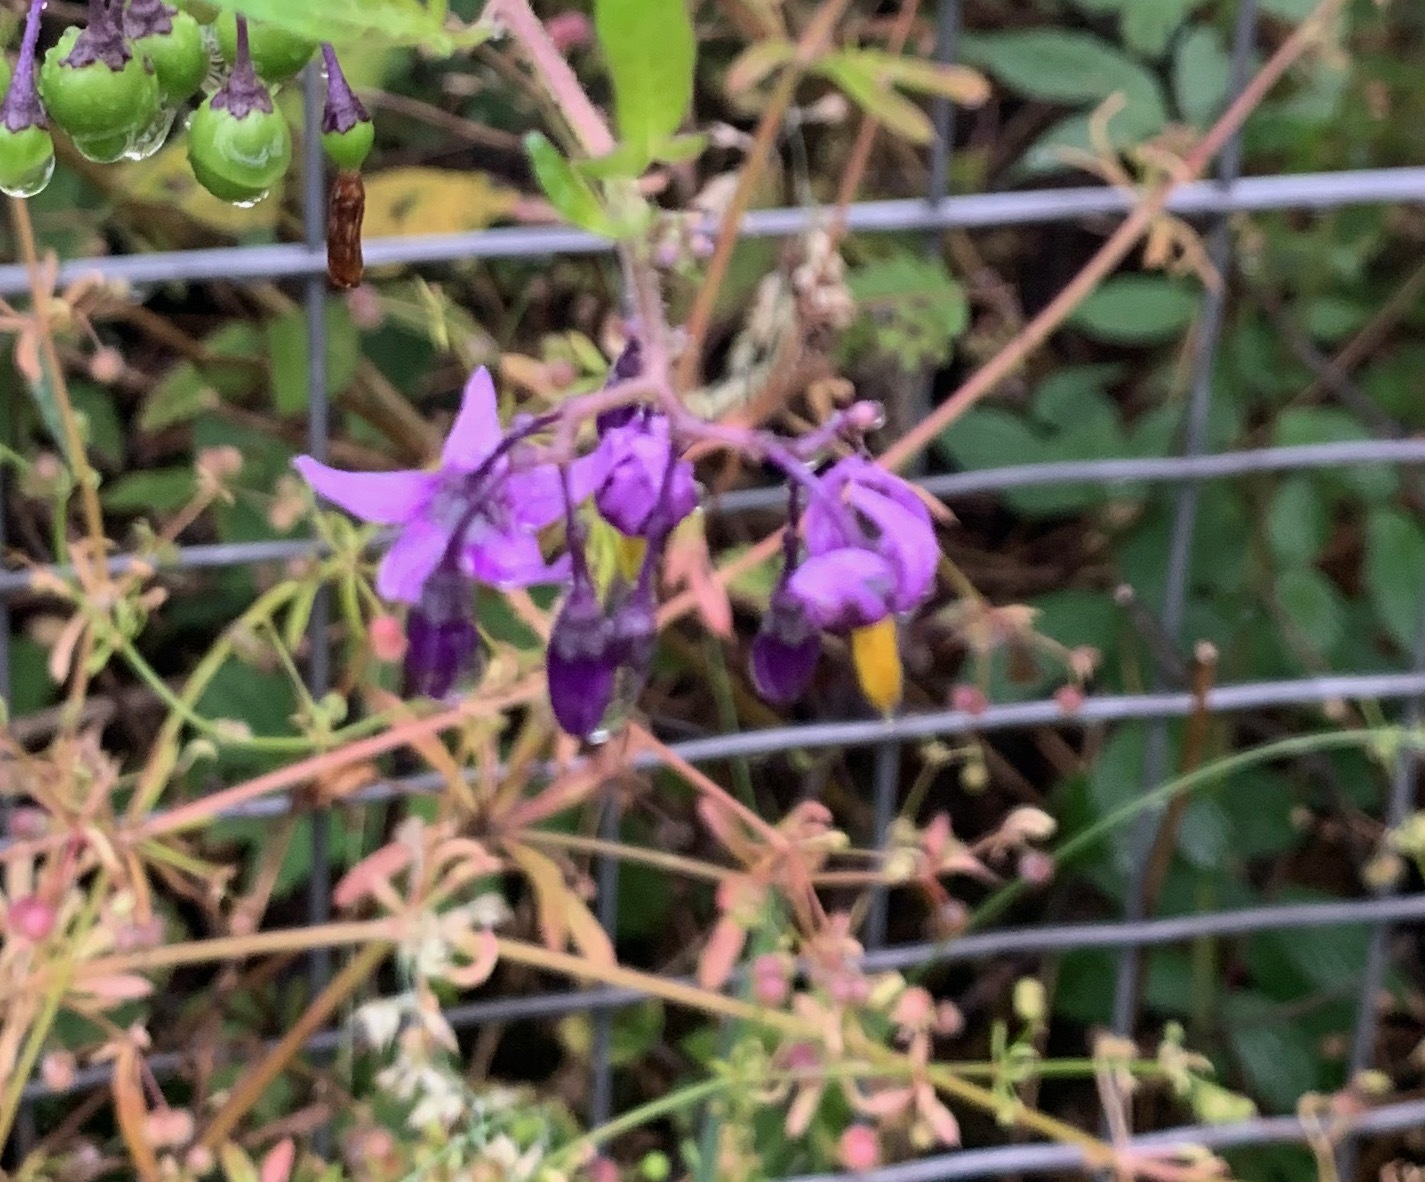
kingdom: Plantae
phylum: Tracheophyta
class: Magnoliopsida
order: Solanales
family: Solanaceae
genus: Solanum
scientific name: Solanum dulcamara
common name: Climbing nightshade
